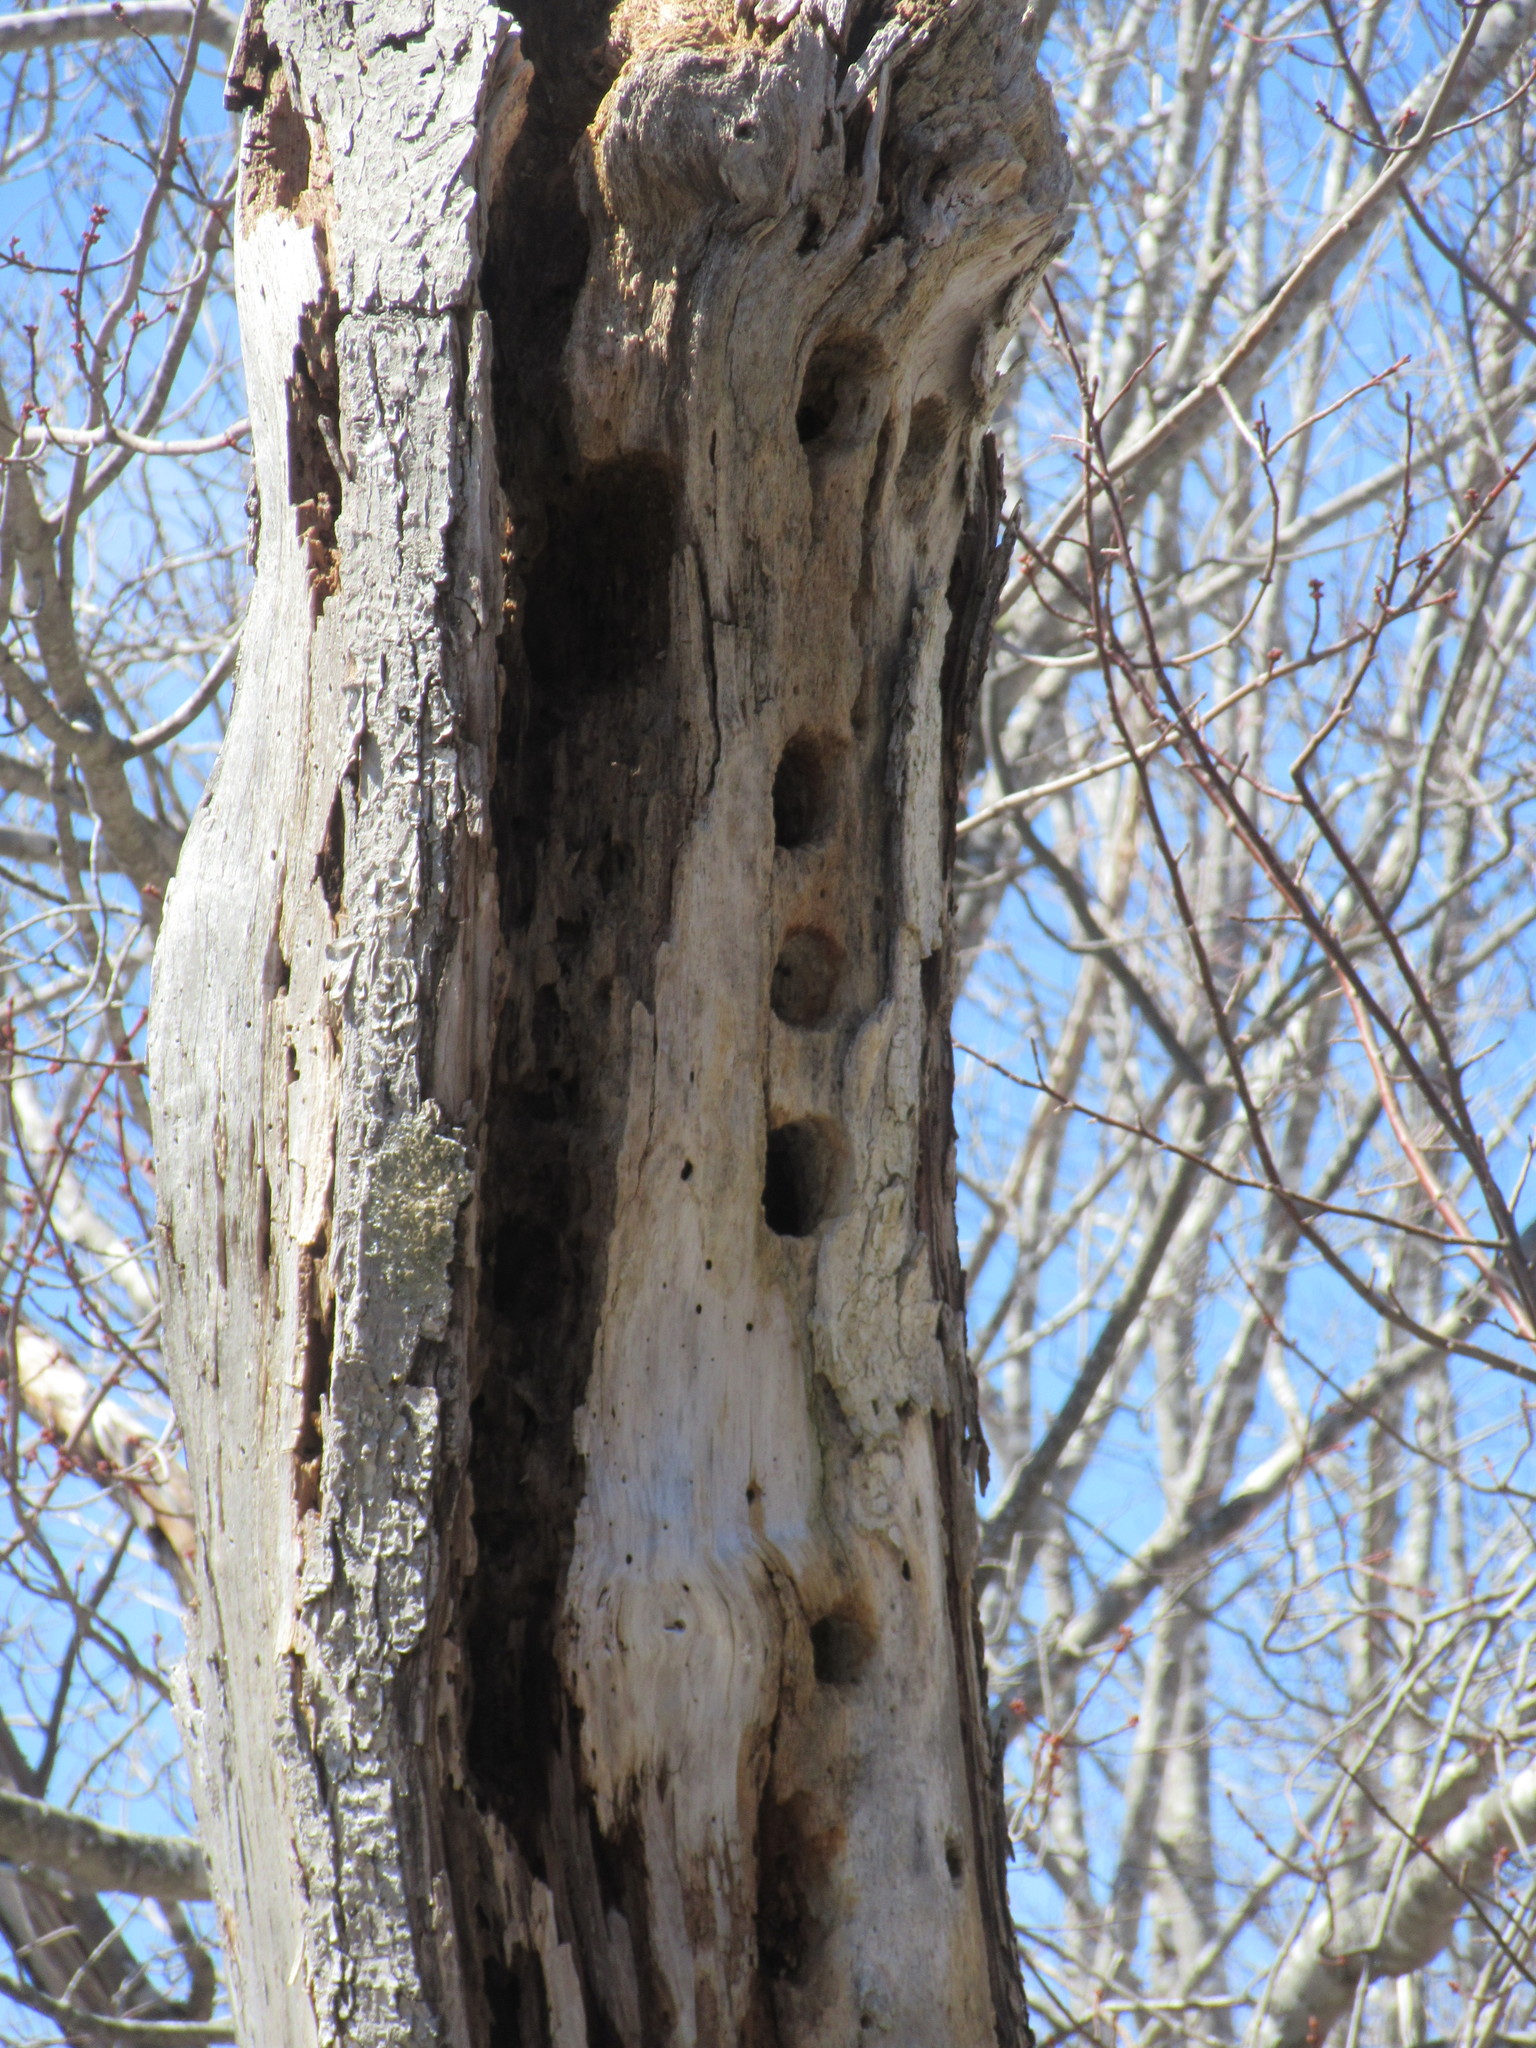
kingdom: Animalia
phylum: Chordata
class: Aves
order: Piciformes
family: Picidae
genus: Dryocopus
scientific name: Dryocopus pileatus
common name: Pileated woodpecker
